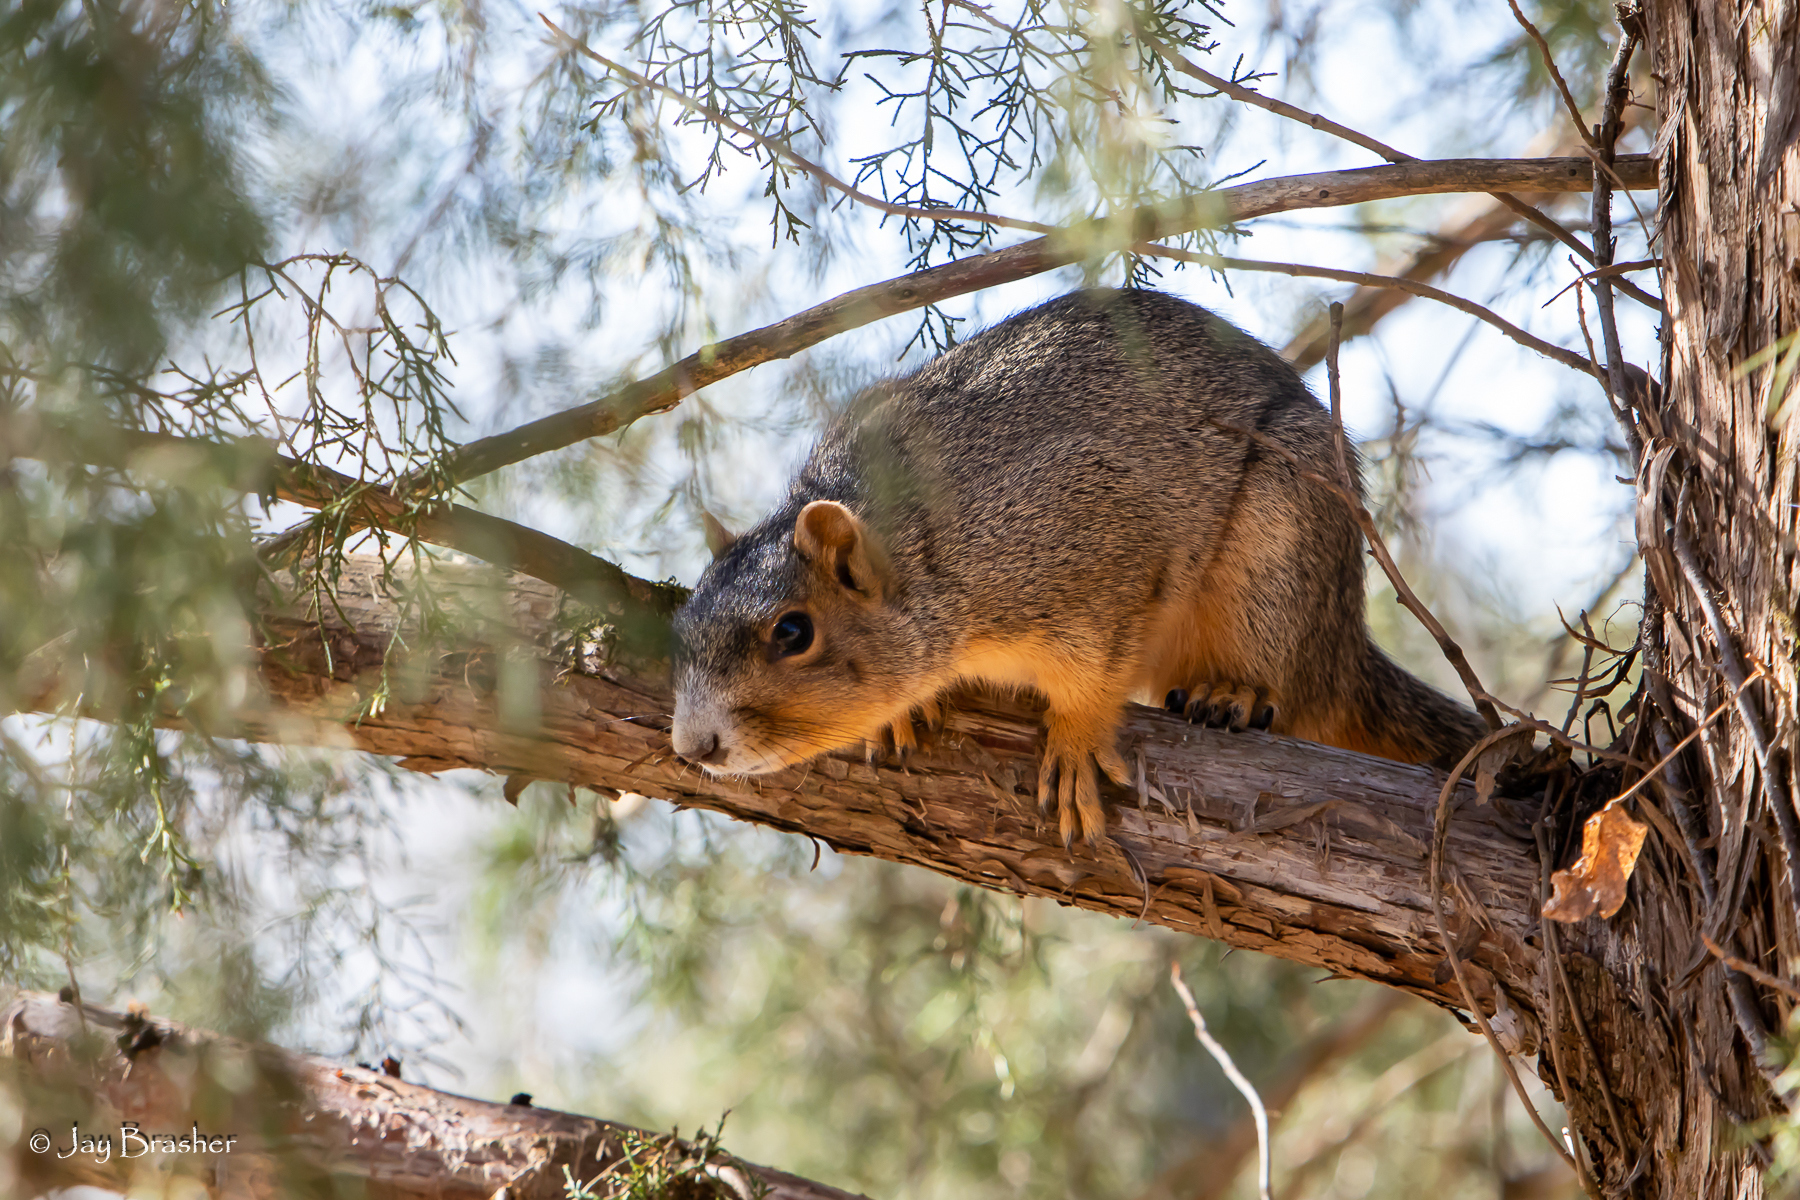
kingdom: Animalia
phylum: Chordata
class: Mammalia
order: Rodentia
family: Sciuridae
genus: Sciurus
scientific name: Sciurus niger
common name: Fox squirrel
